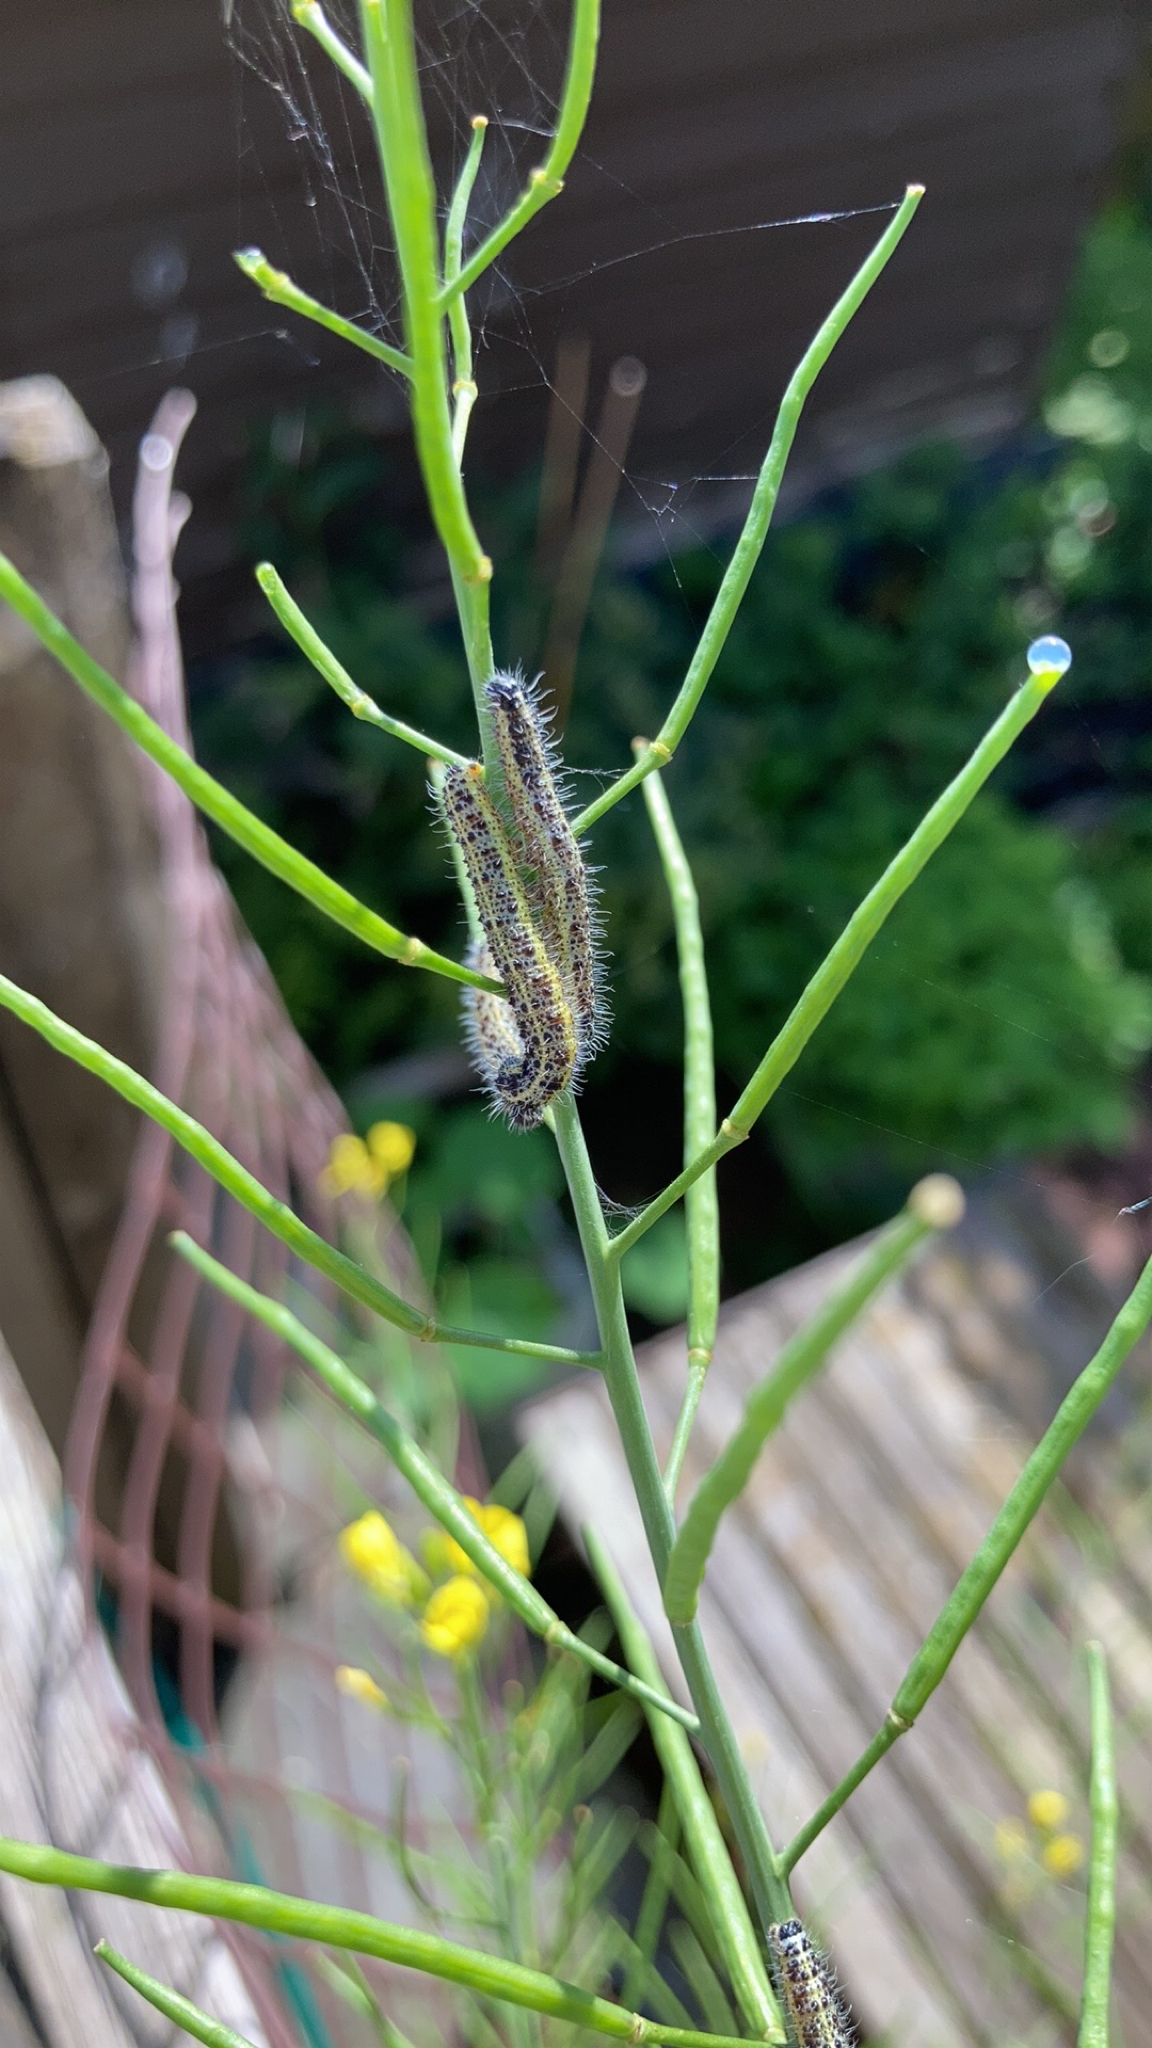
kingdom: Animalia
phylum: Arthropoda
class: Insecta
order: Lepidoptera
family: Pieridae
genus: Pieris
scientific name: Pieris brassicae
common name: Large white
